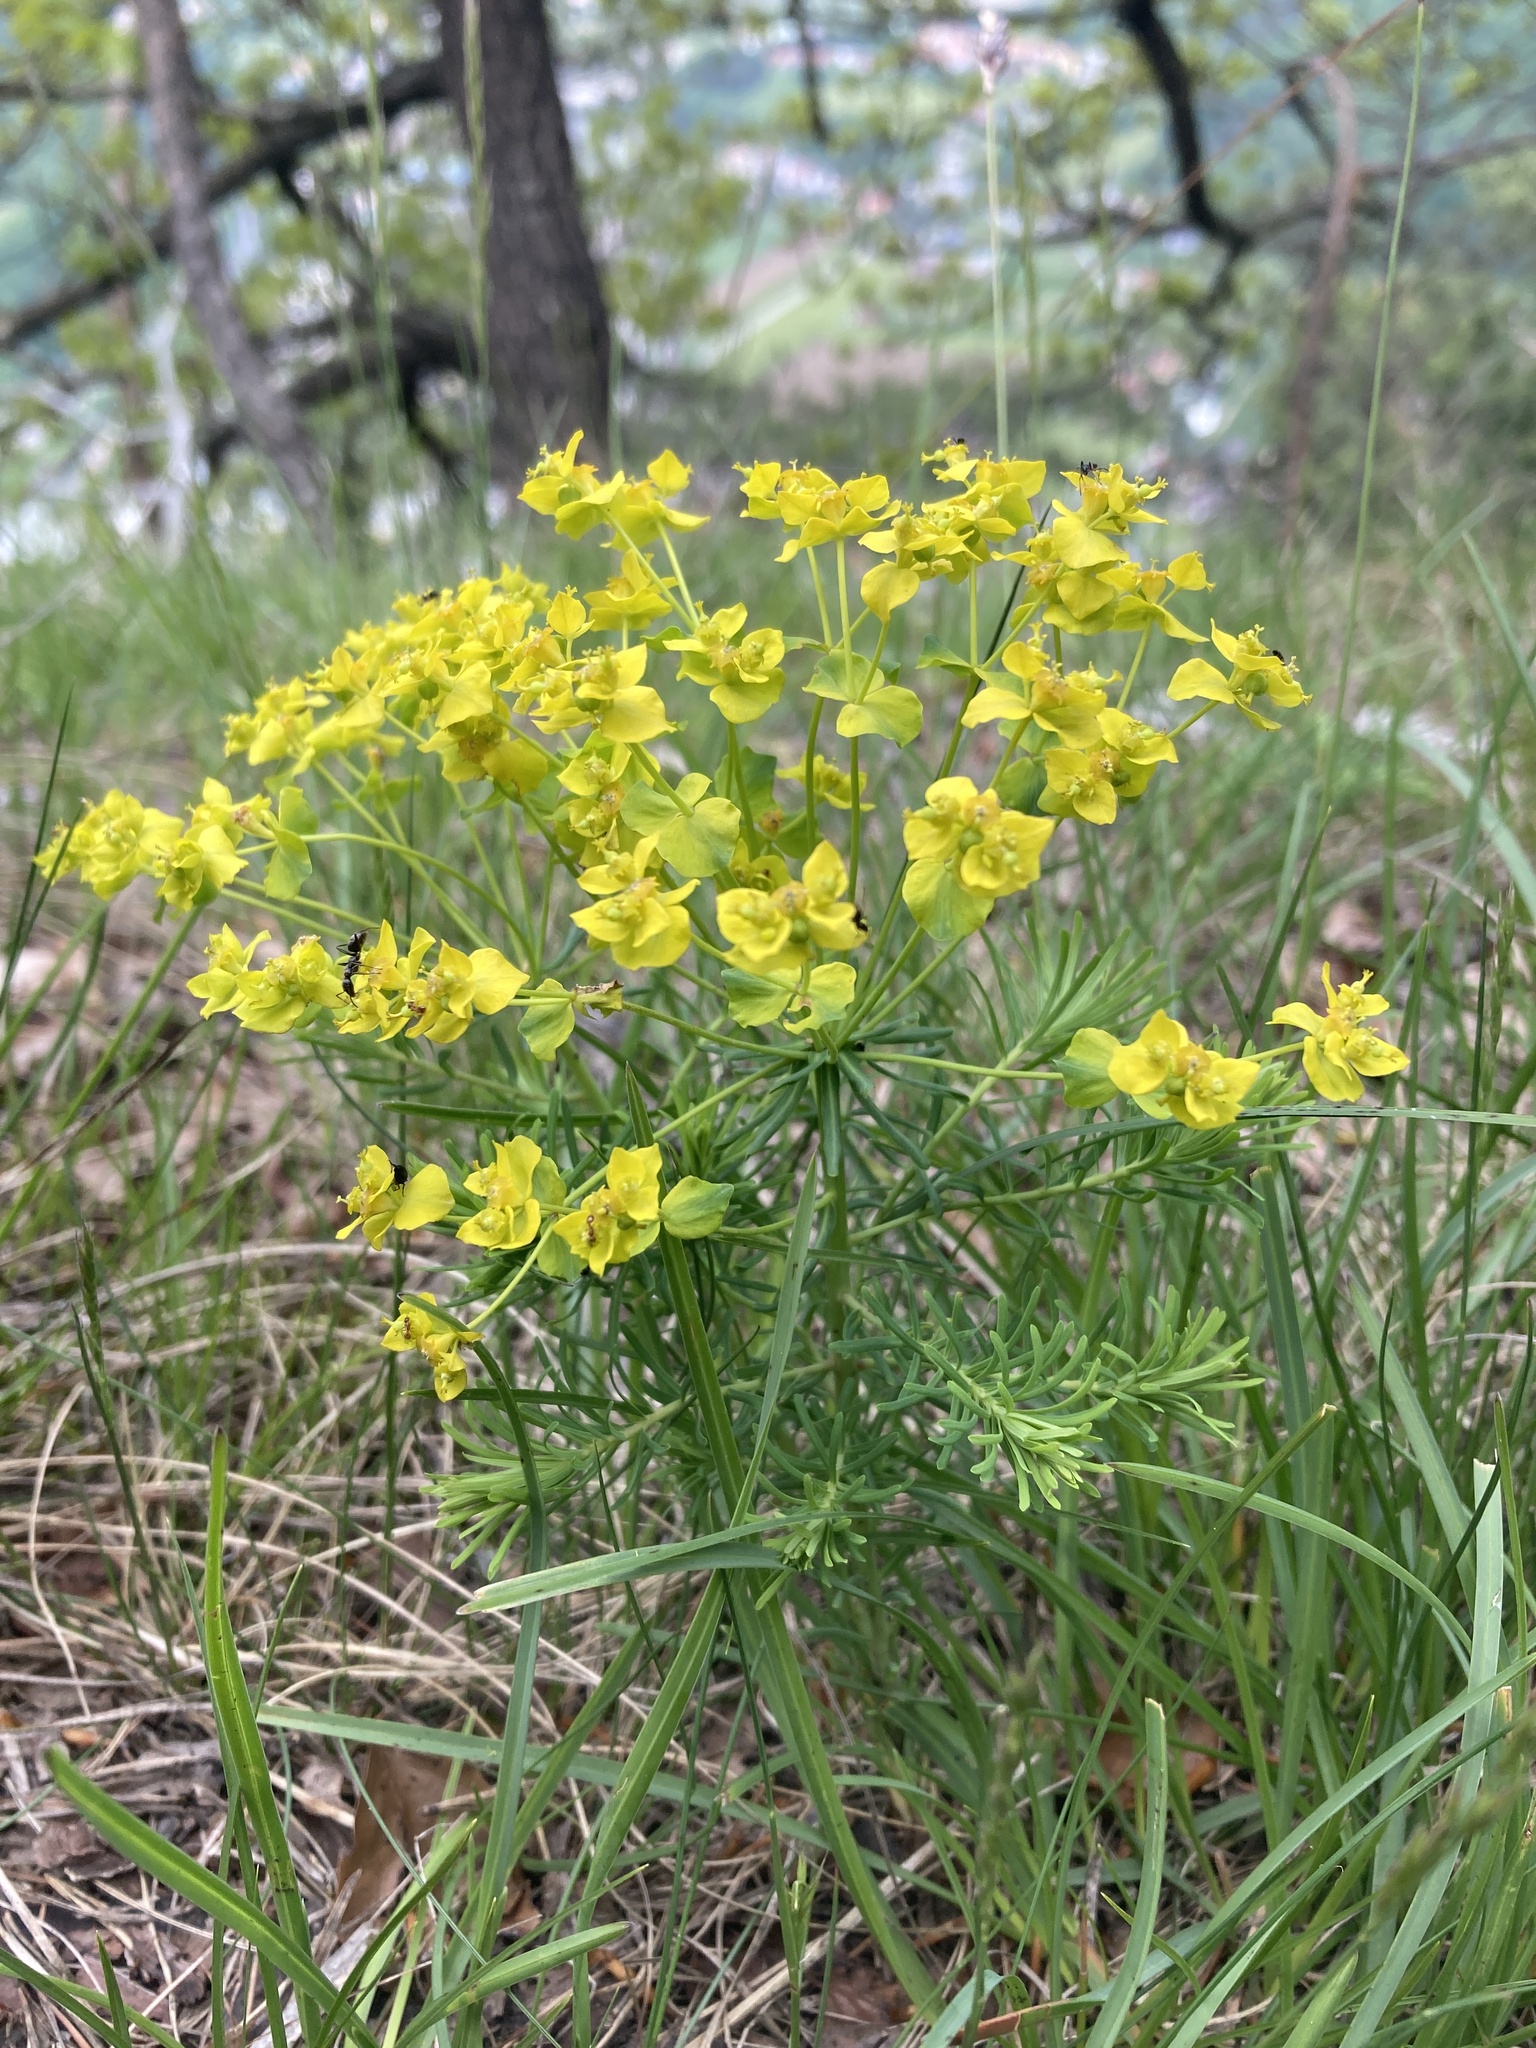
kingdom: Plantae
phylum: Tracheophyta
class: Magnoliopsida
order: Malpighiales
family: Euphorbiaceae
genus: Euphorbia
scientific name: Euphorbia cyparissias
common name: Cypress spurge
